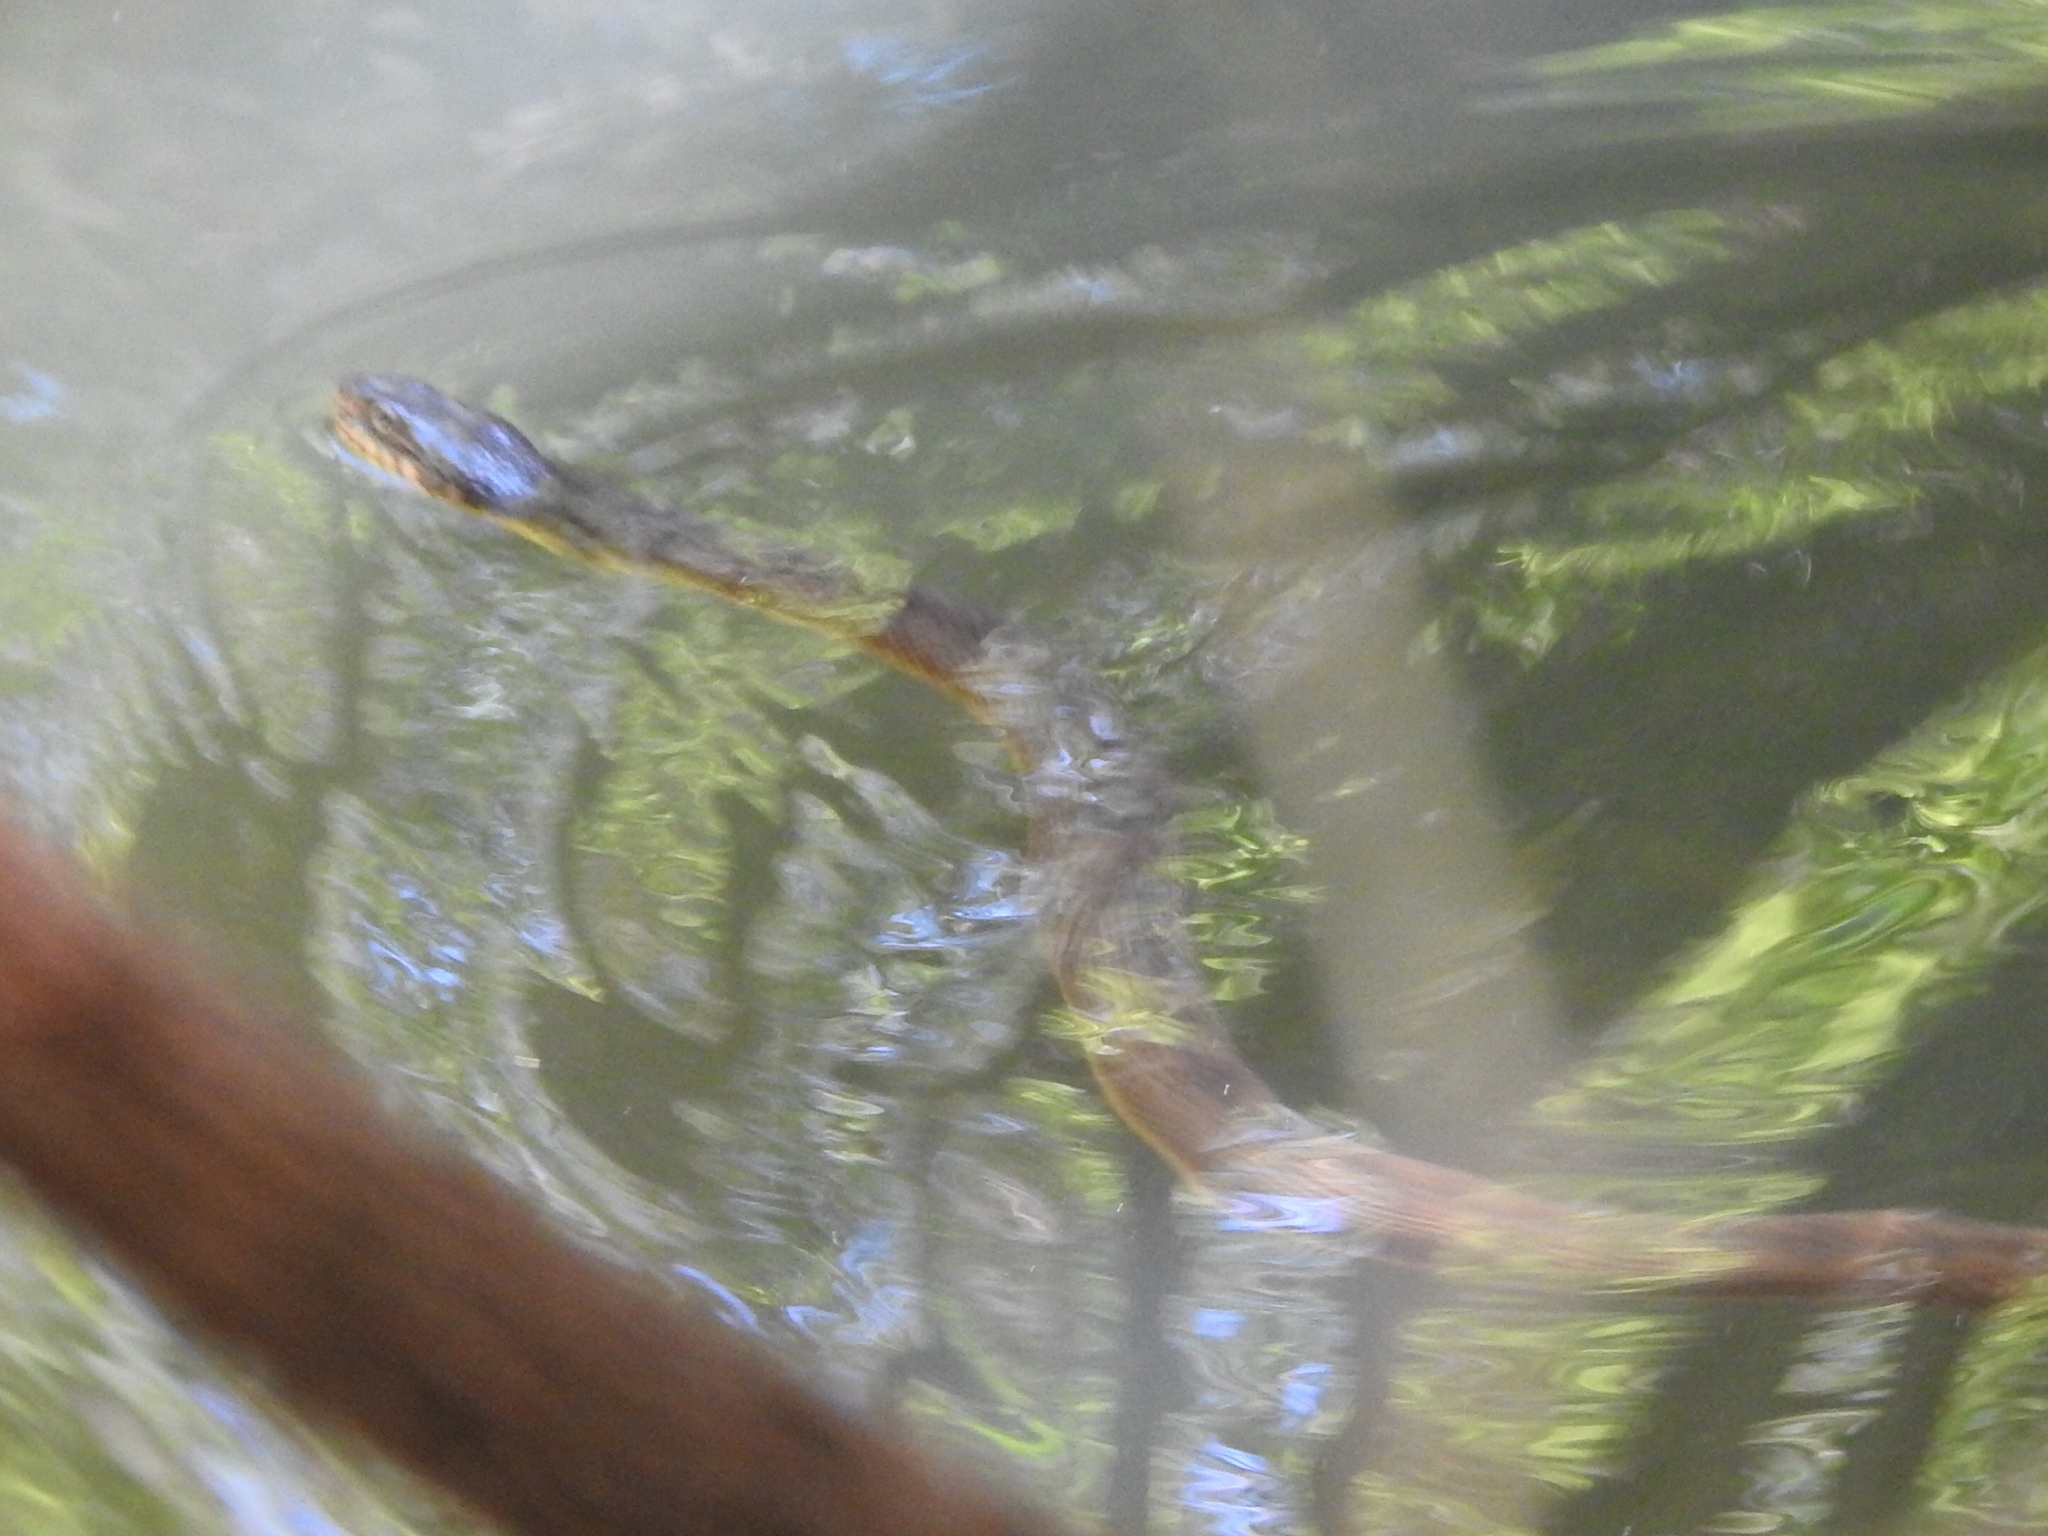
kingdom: Animalia
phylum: Chordata
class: Squamata
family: Colubridae
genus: Nerodia
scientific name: Nerodia erythrogaster
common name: Plainbelly water snake
